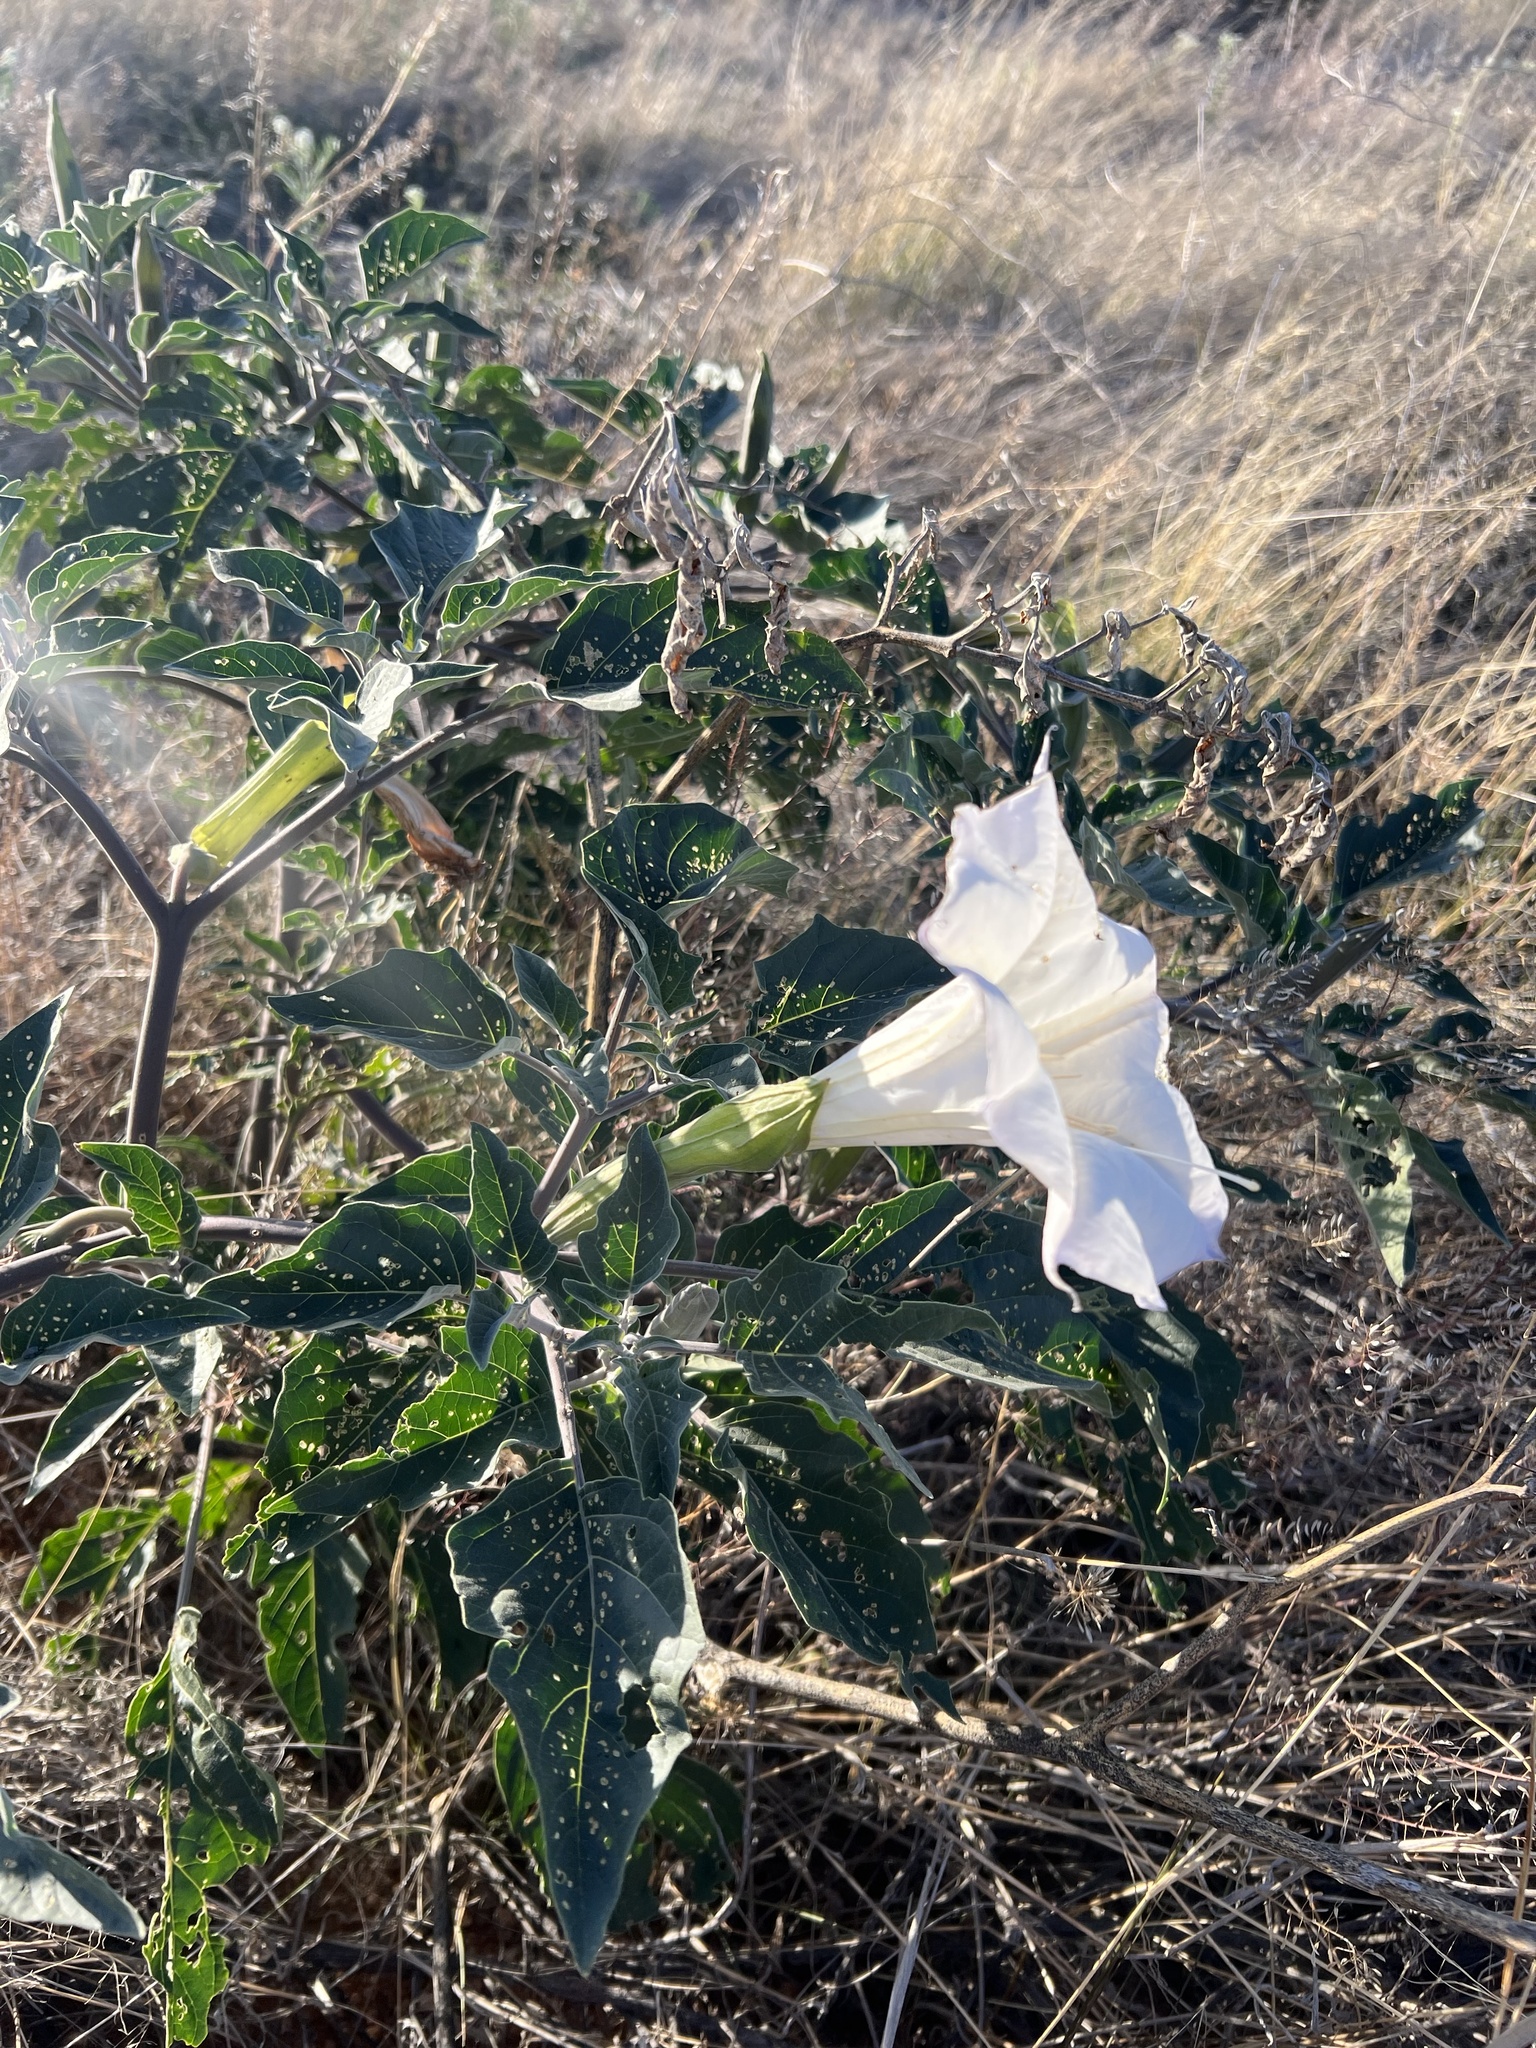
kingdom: Plantae
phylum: Tracheophyta
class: Magnoliopsida
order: Solanales
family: Solanaceae
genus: Datura
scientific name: Datura wrightii
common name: Sacred thorn-apple
